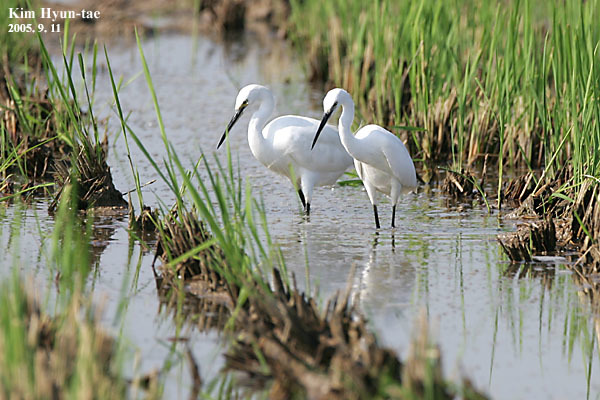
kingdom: Animalia
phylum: Chordata
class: Aves
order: Pelecaniformes
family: Ardeidae
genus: Egretta
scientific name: Egretta garzetta
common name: Little egret
